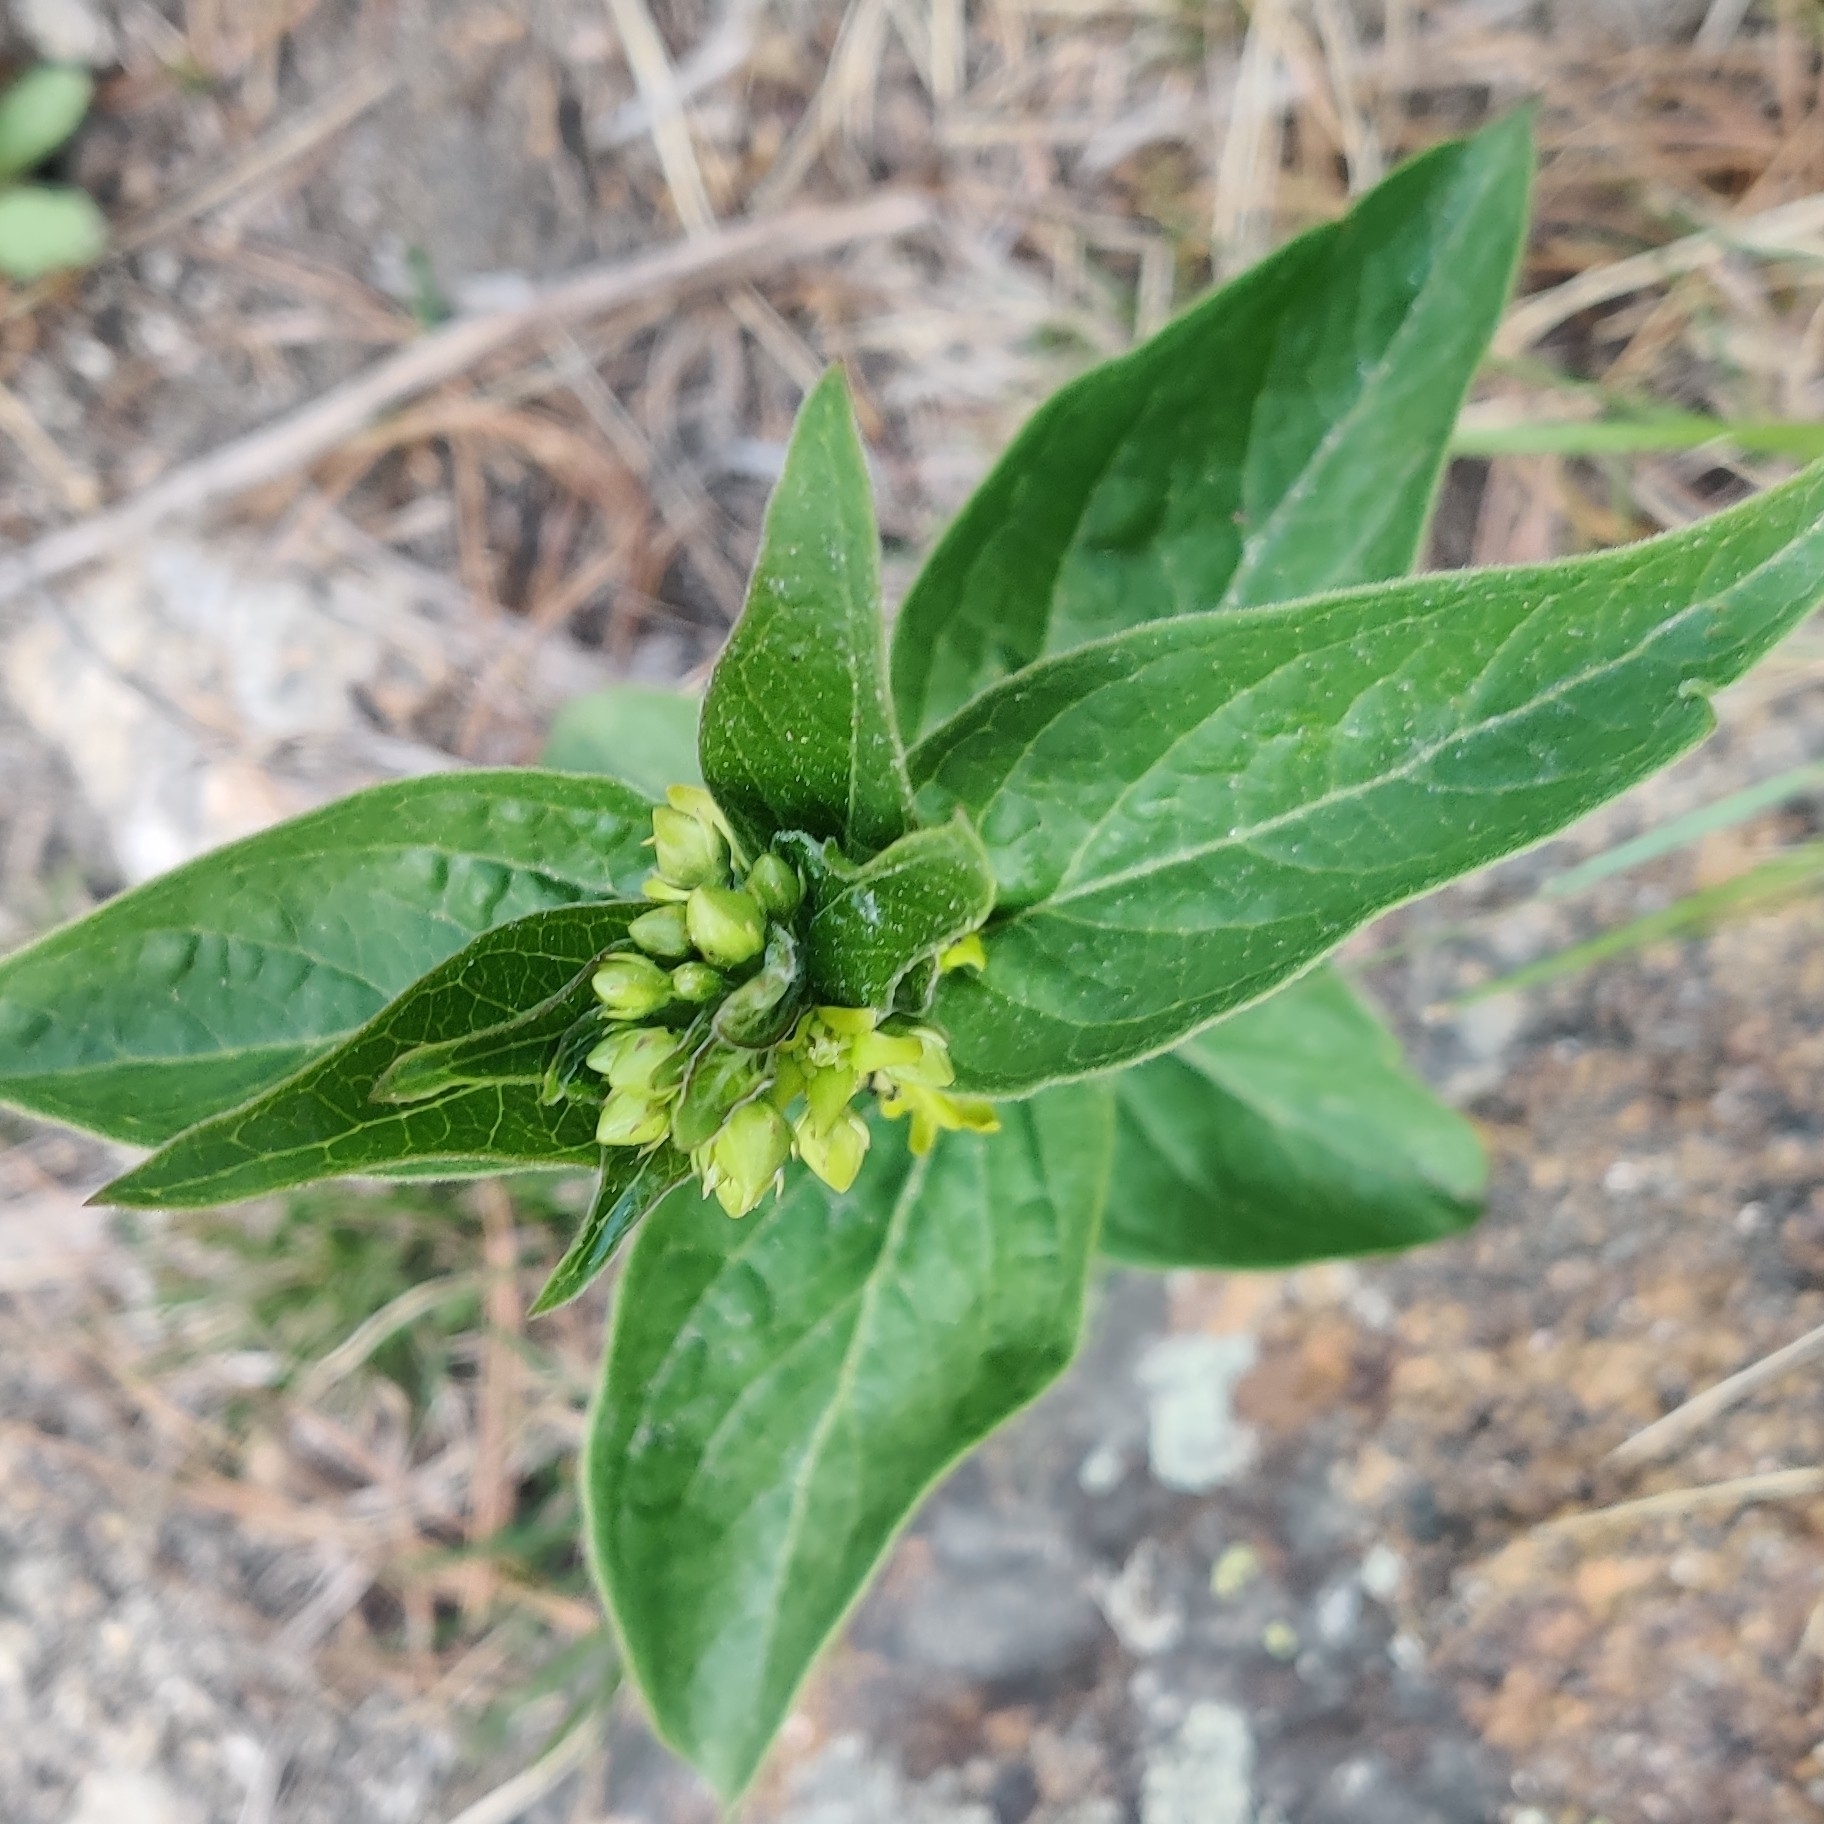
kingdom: Plantae
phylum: Tracheophyta
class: Magnoliopsida
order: Gentianales
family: Apocynaceae
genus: Vincetoxicum
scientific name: Vincetoxicum hirundinaria
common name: White swallowwort
